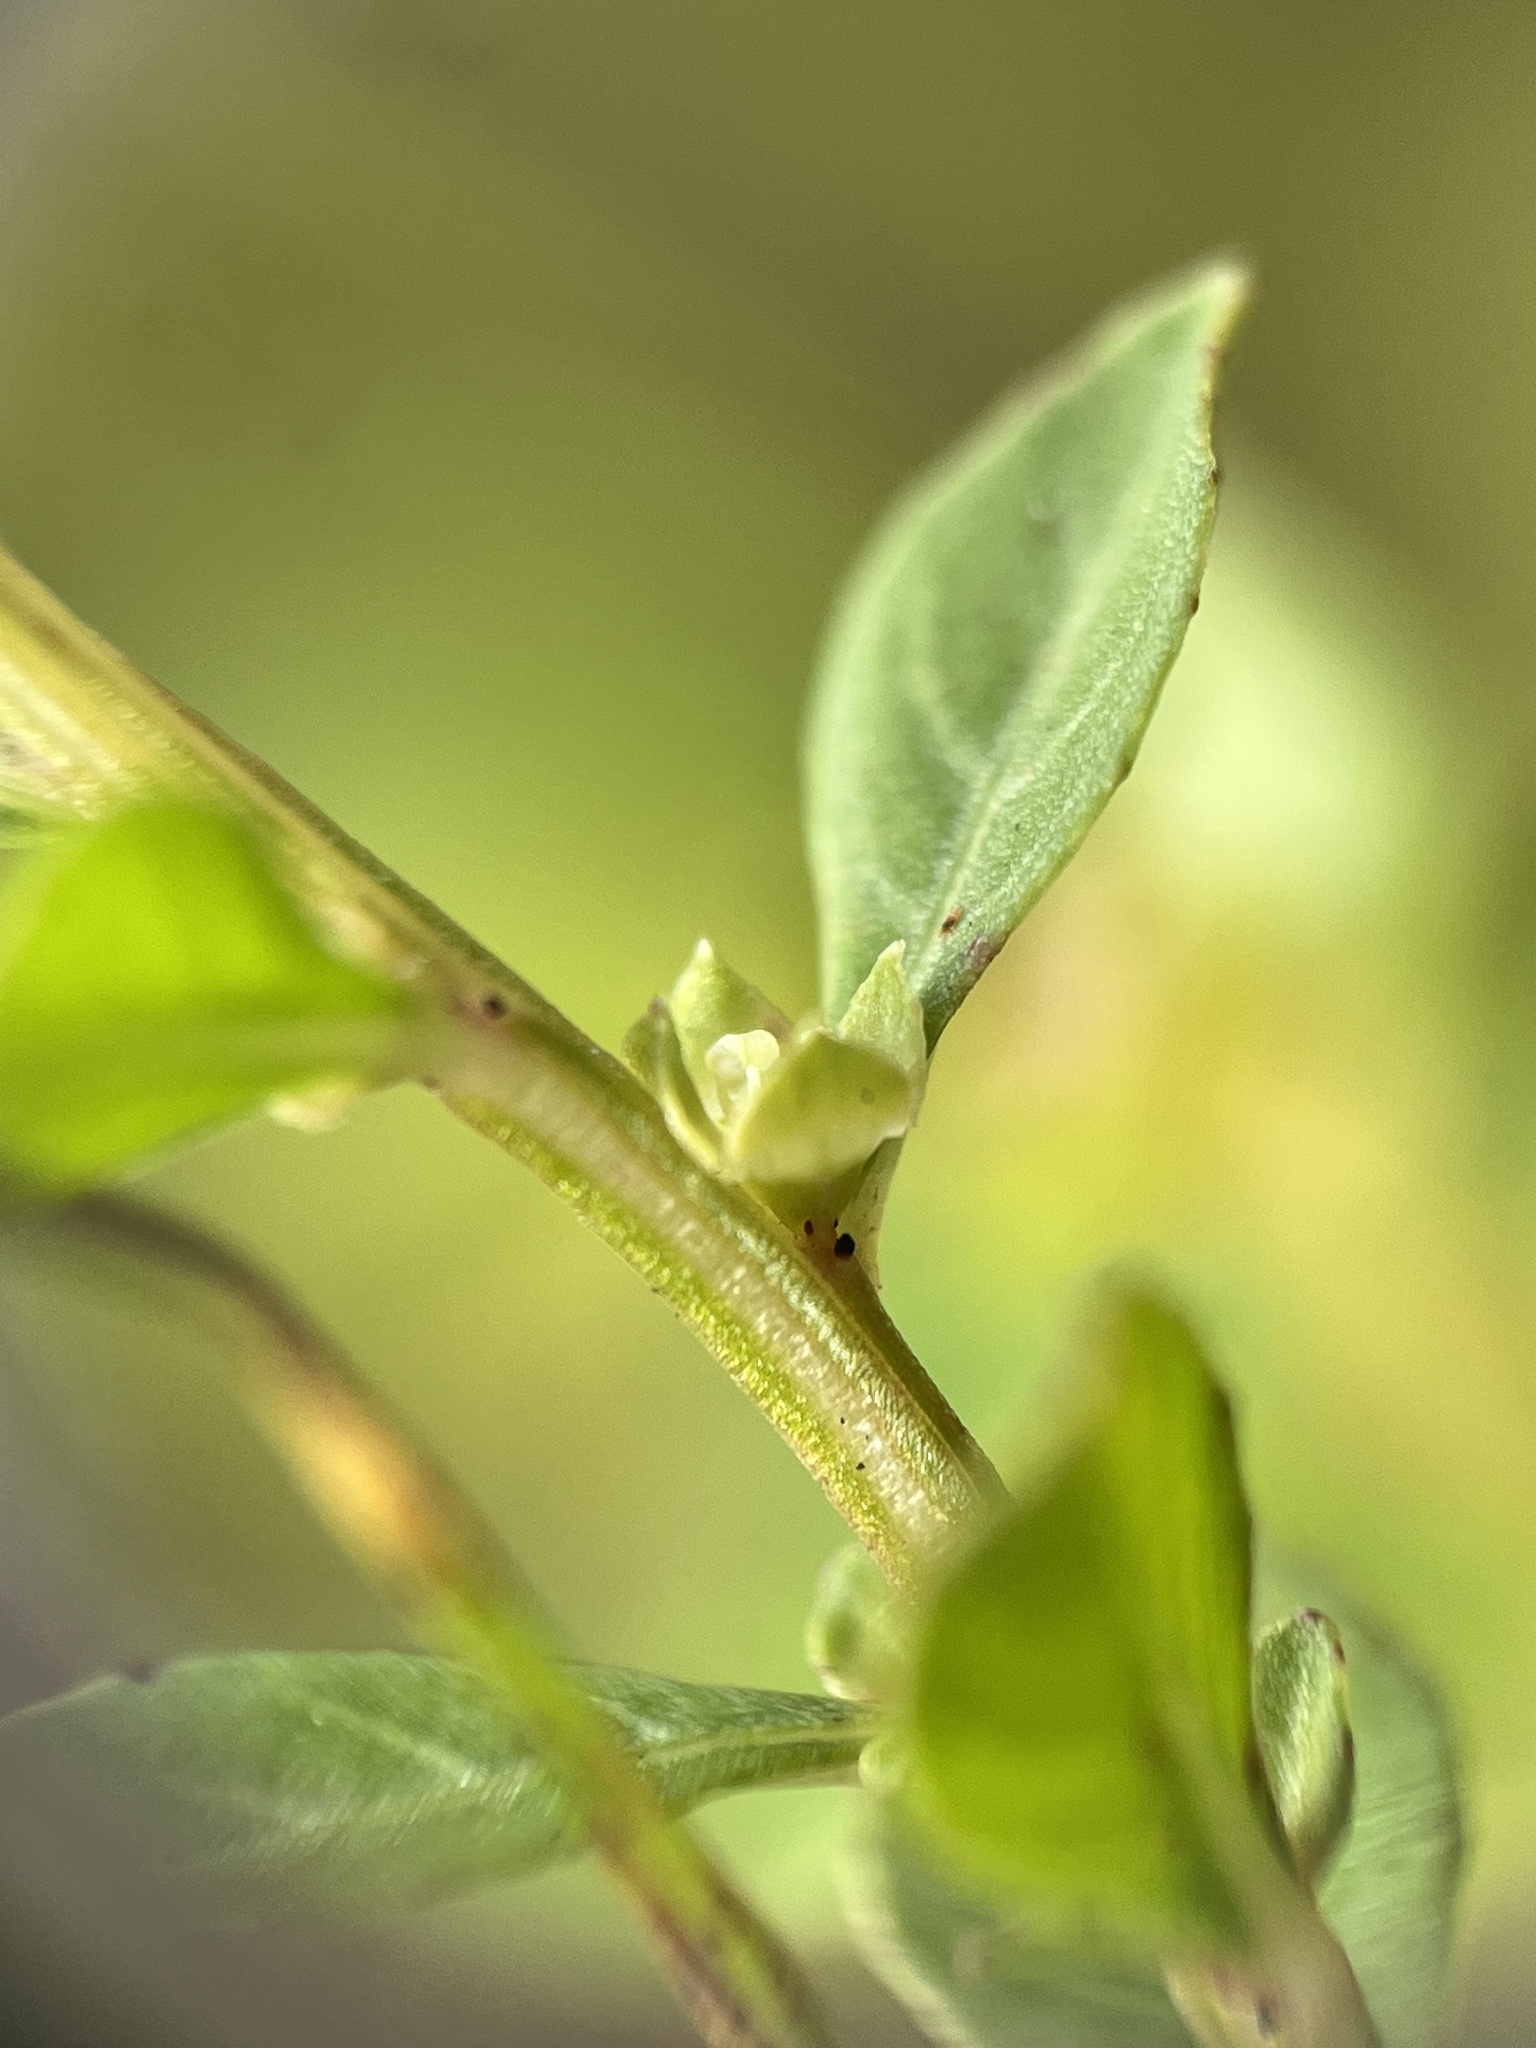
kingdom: Plantae
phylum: Tracheophyta
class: Magnoliopsida
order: Myrtales
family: Onagraceae
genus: Ludwigia
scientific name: Ludwigia microcarpa
